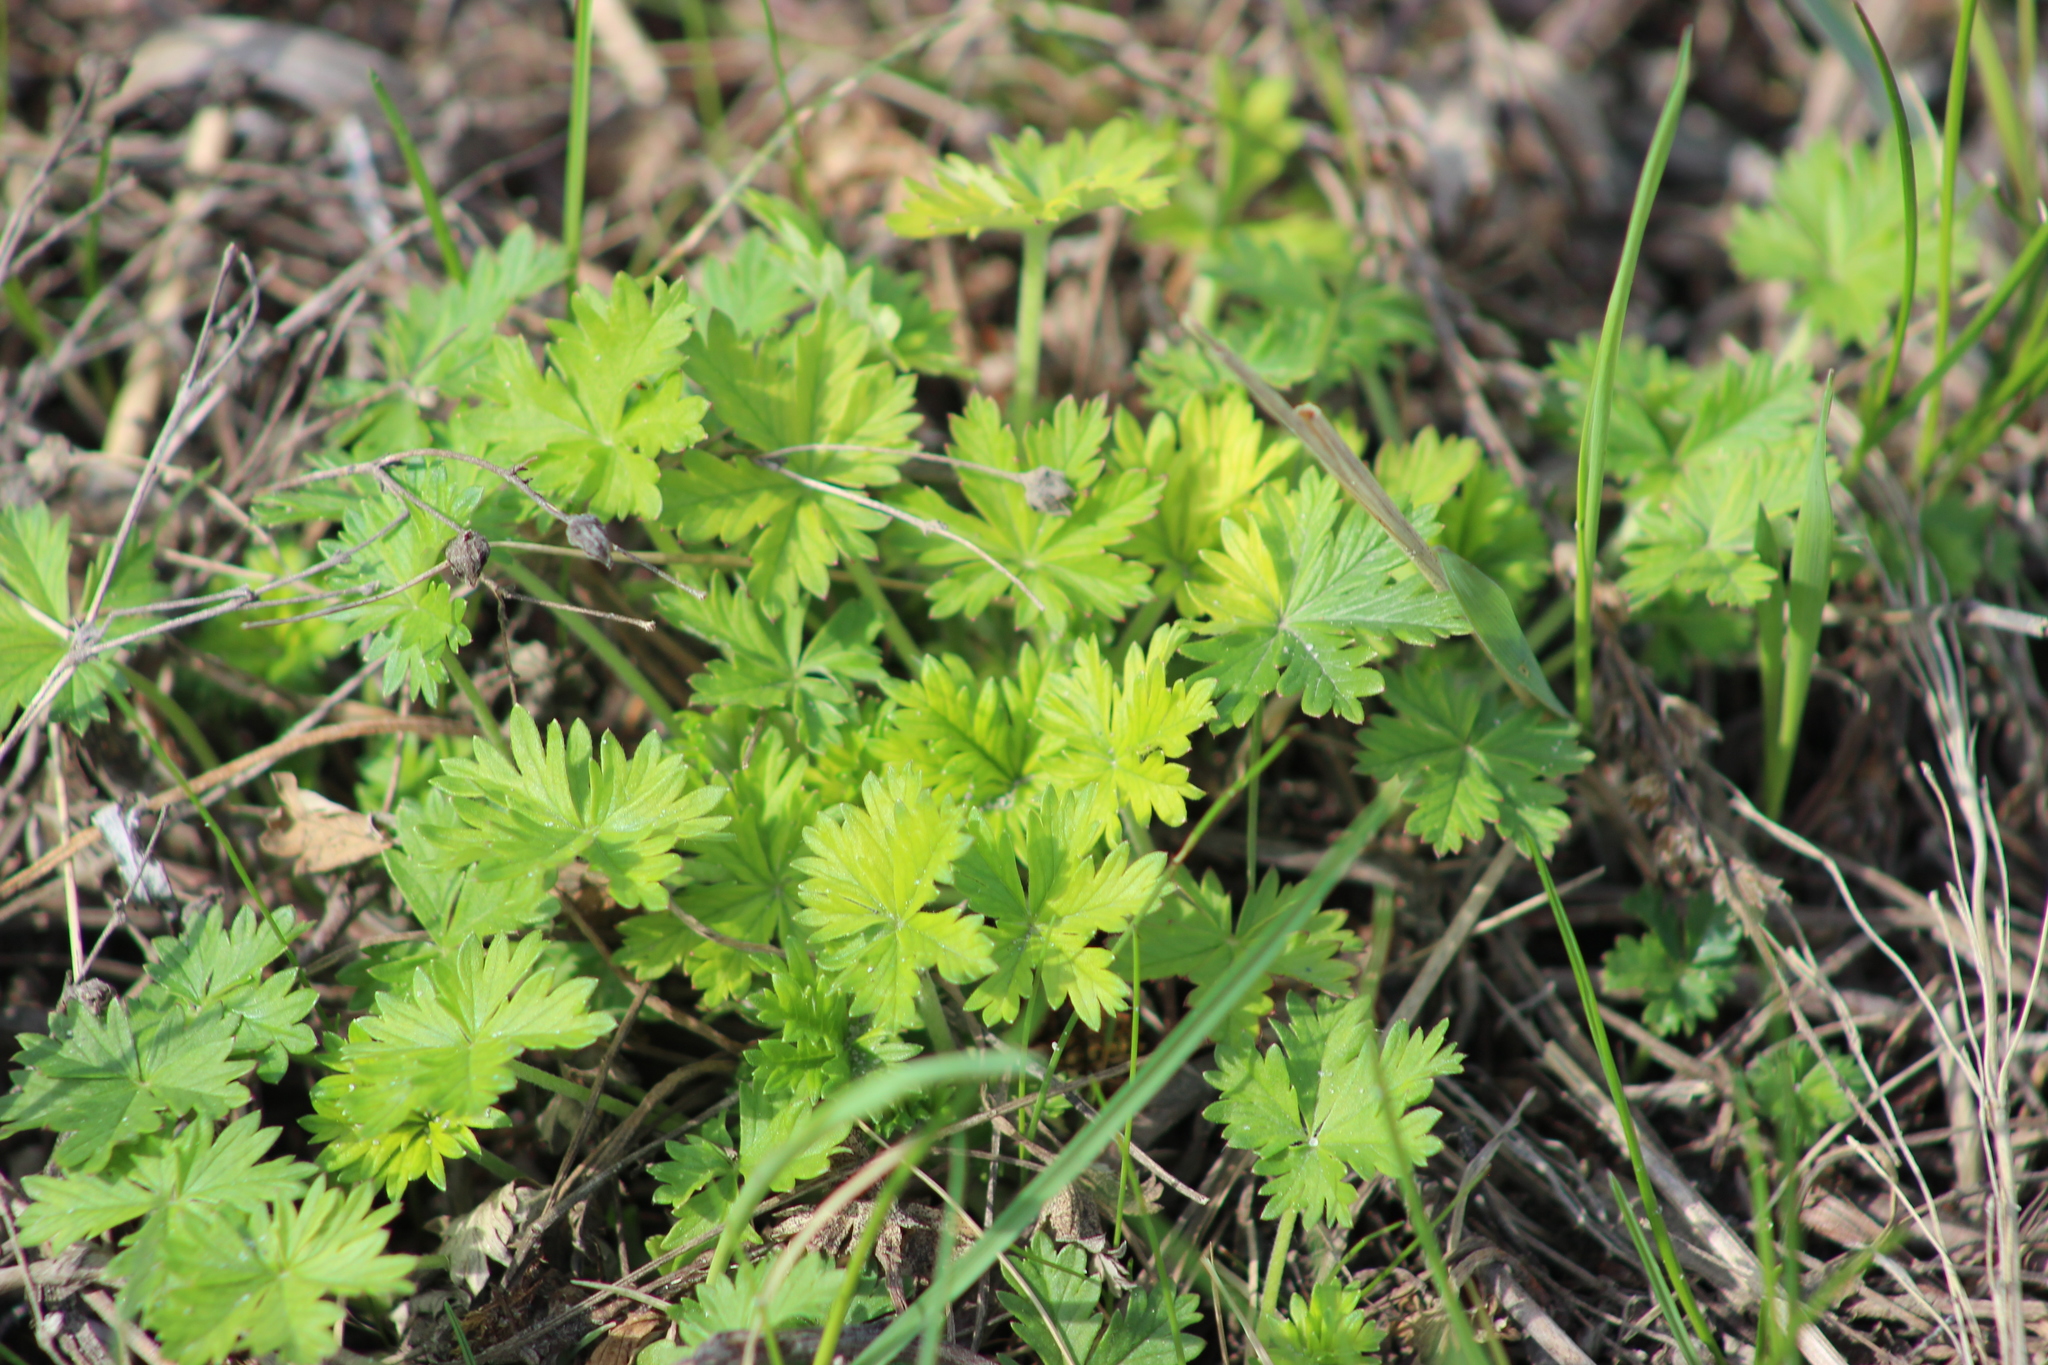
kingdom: Plantae
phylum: Tracheophyta
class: Magnoliopsida
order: Rosales
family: Rosaceae
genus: Potentilla
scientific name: Potentilla argentea
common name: Hoary cinquefoil
